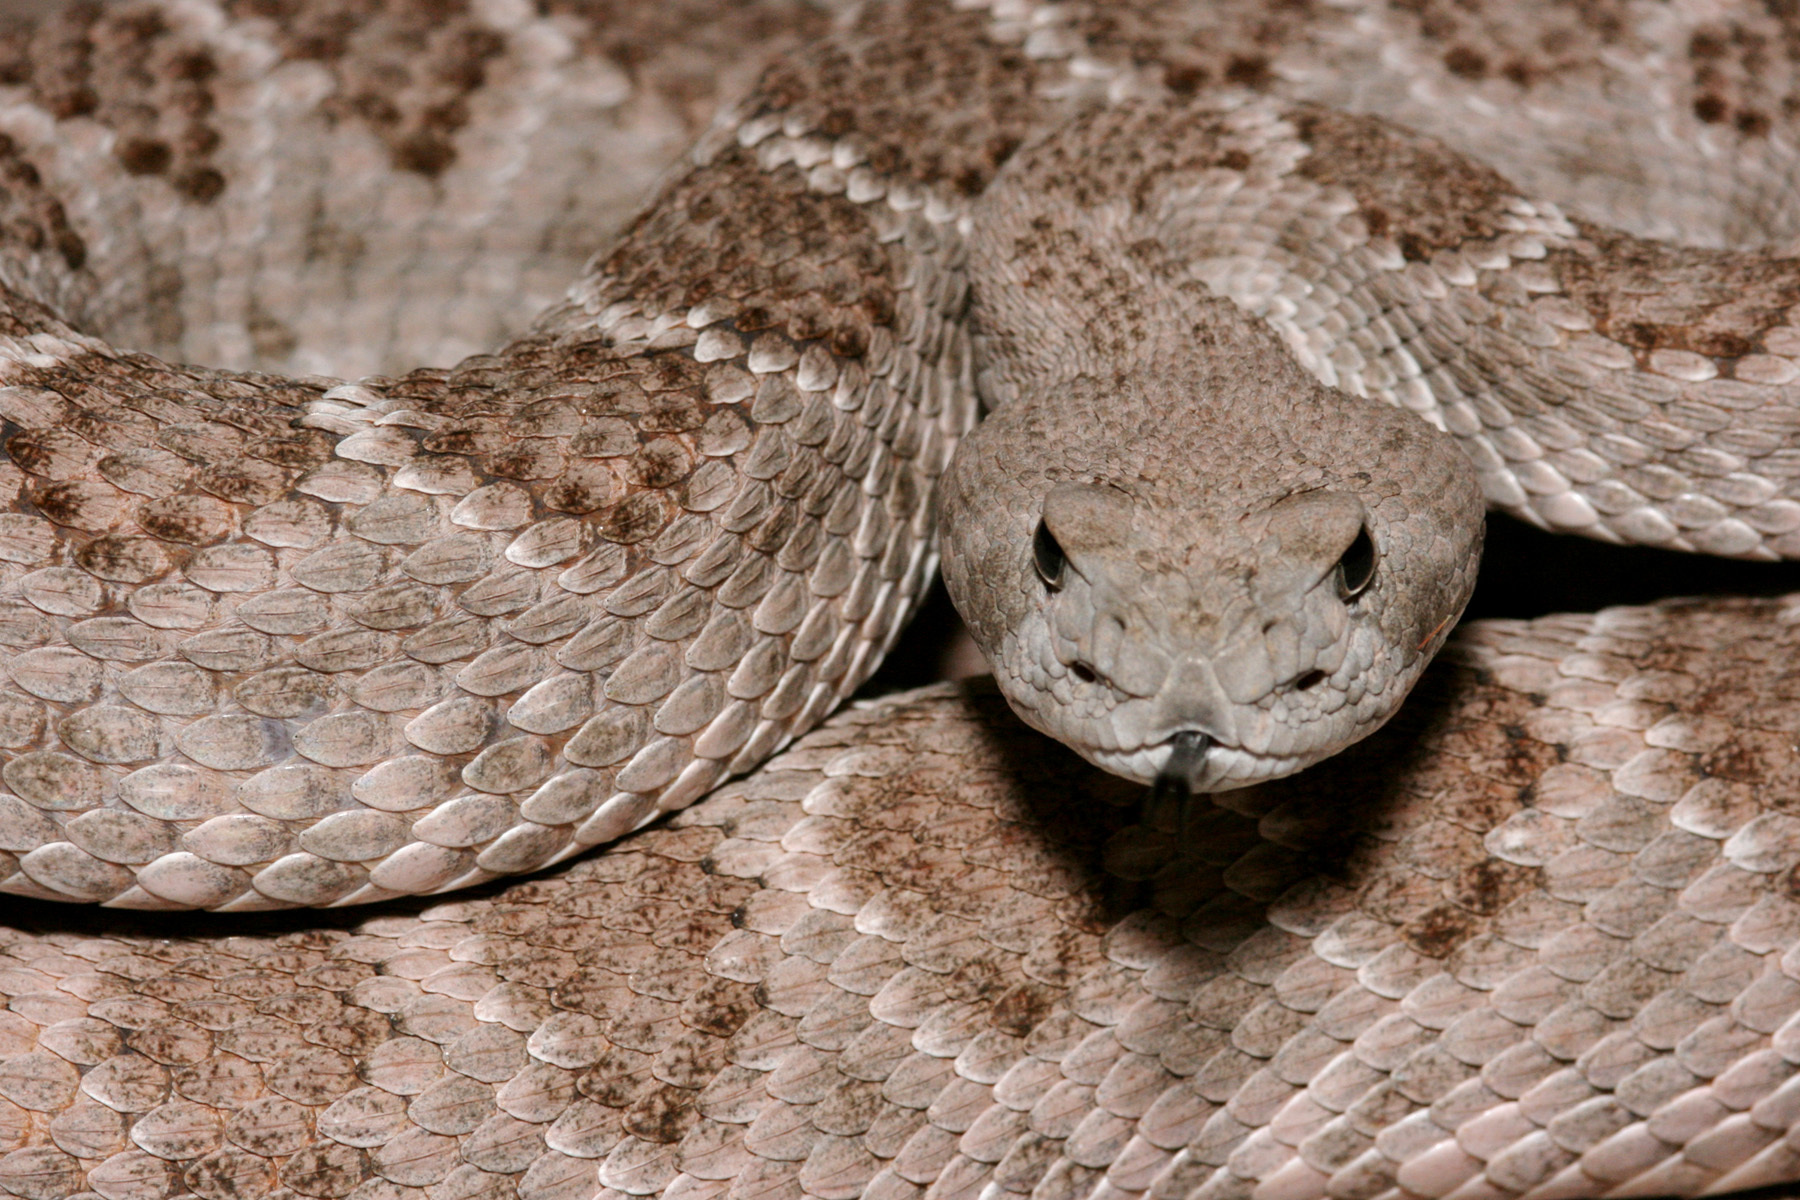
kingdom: Animalia
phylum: Chordata
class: Squamata
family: Viperidae
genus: Crotalus
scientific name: Crotalus atrox
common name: Western diamond-backed rattlesnake
